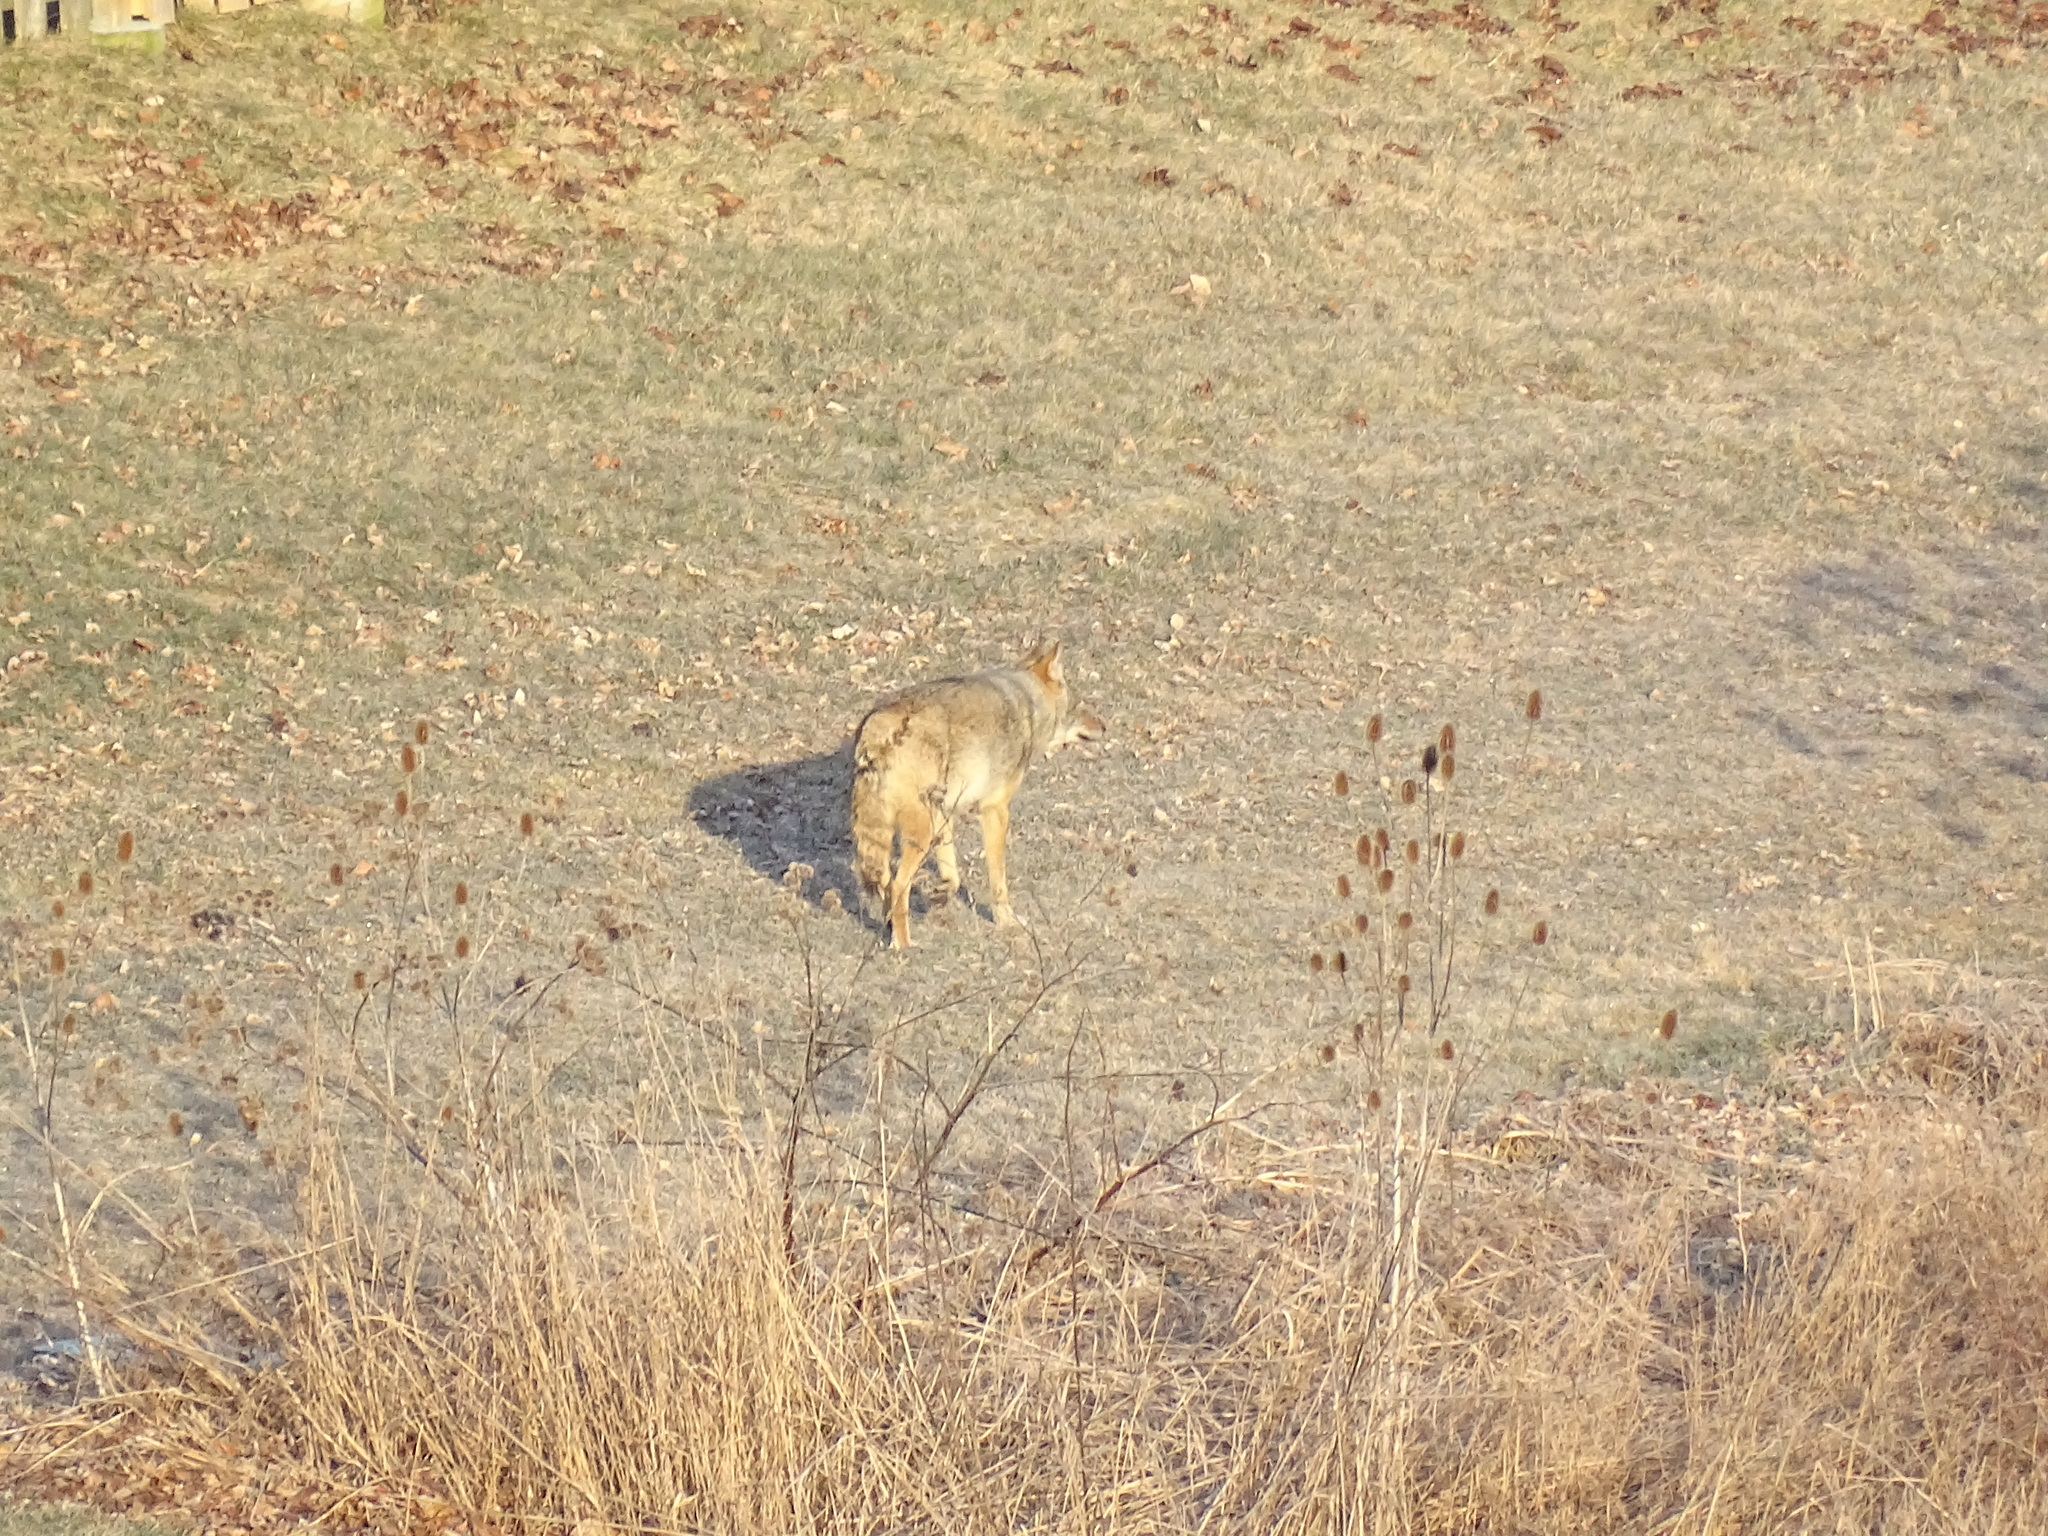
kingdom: Animalia
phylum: Chordata
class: Mammalia
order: Carnivora
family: Canidae
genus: Canis
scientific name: Canis latrans
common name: Coyote
